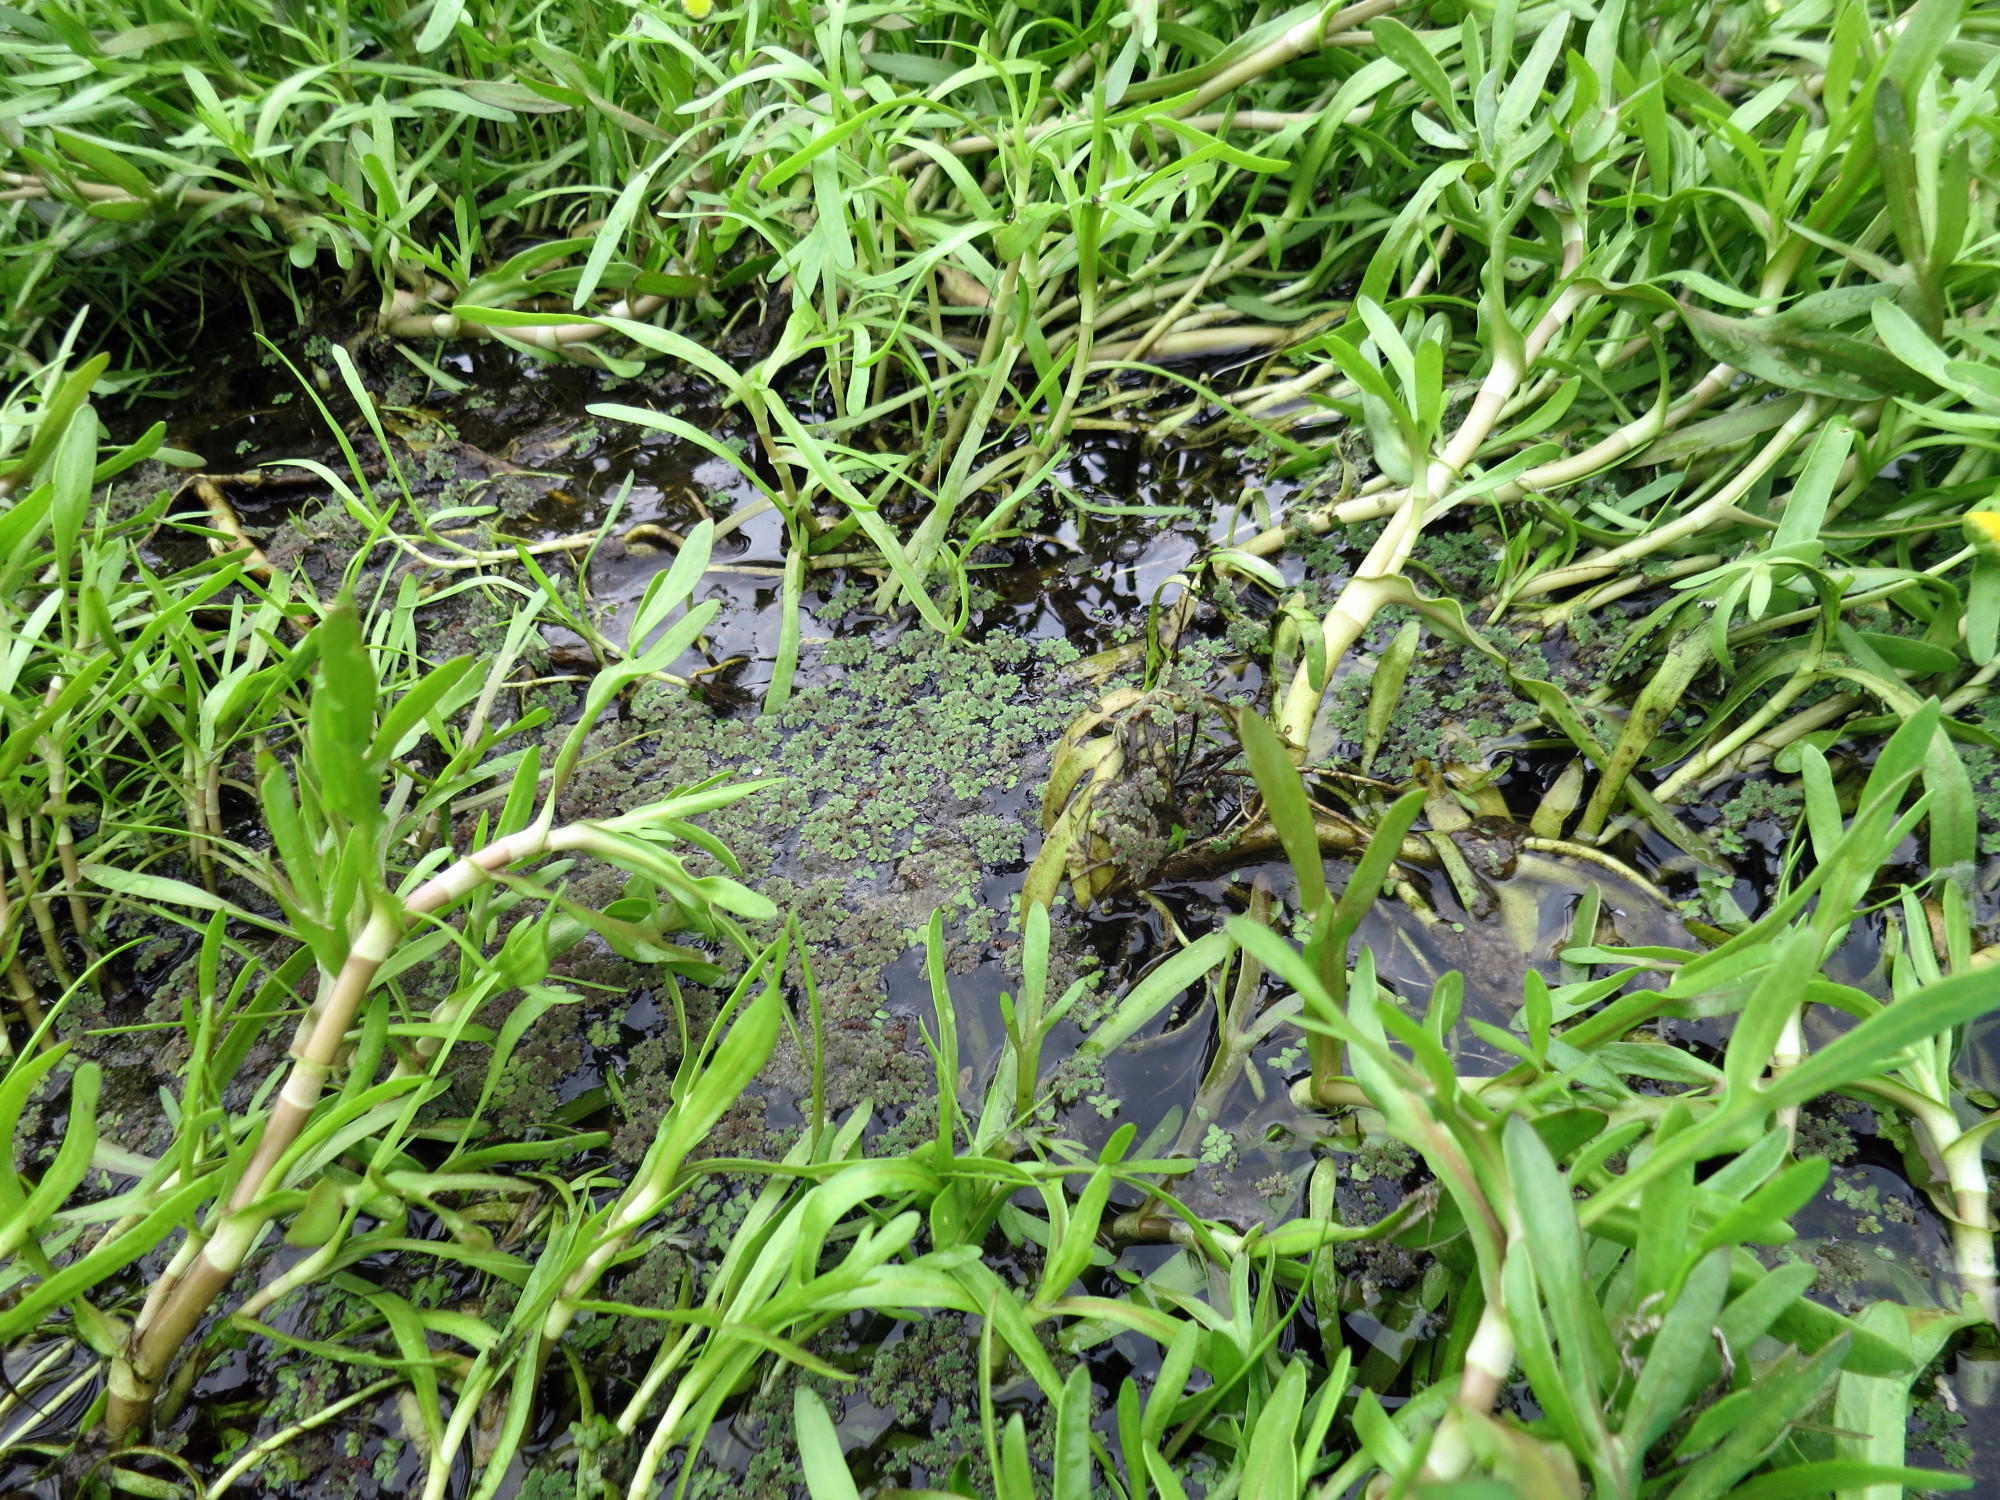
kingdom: Plantae
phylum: Tracheophyta
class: Magnoliopsida
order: Asterales
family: Asteraceae
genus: Cotula
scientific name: Cotula coronopifolia
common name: Buttonweed
